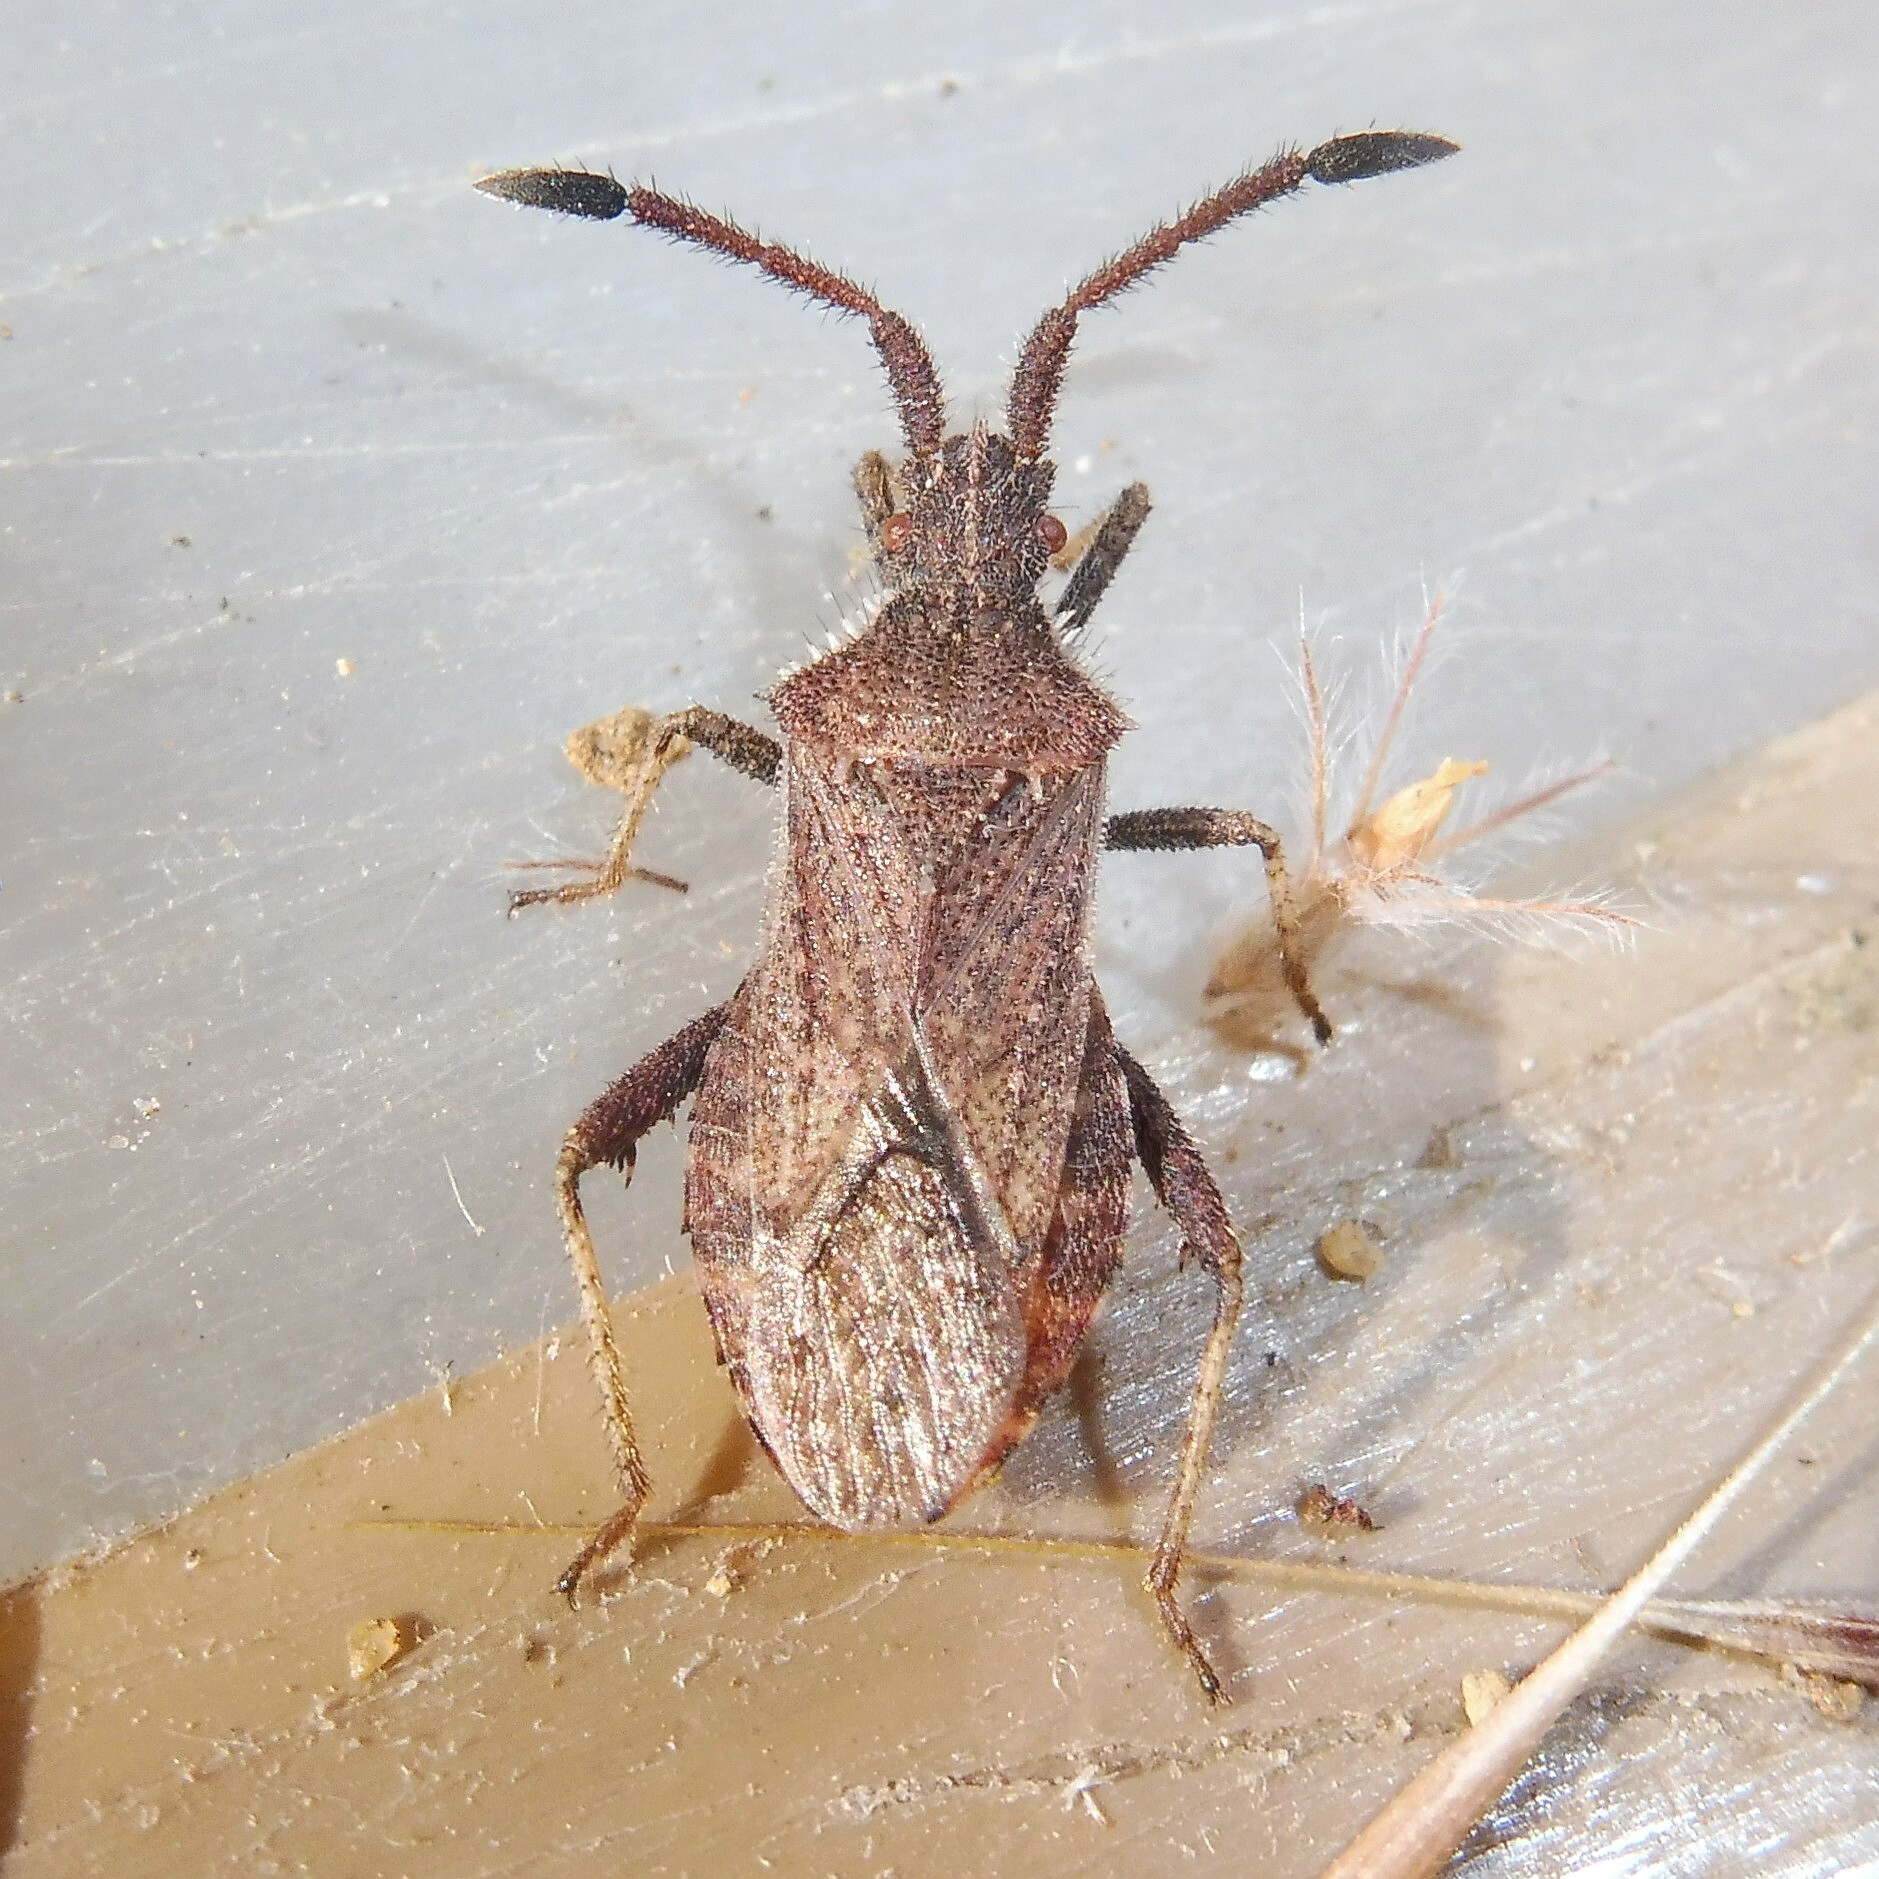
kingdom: Animalia
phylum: Arthropoda
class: Insecta
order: Hemiptera
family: Coreidae
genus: Coriomeris
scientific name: Coriomeris denticulatus
